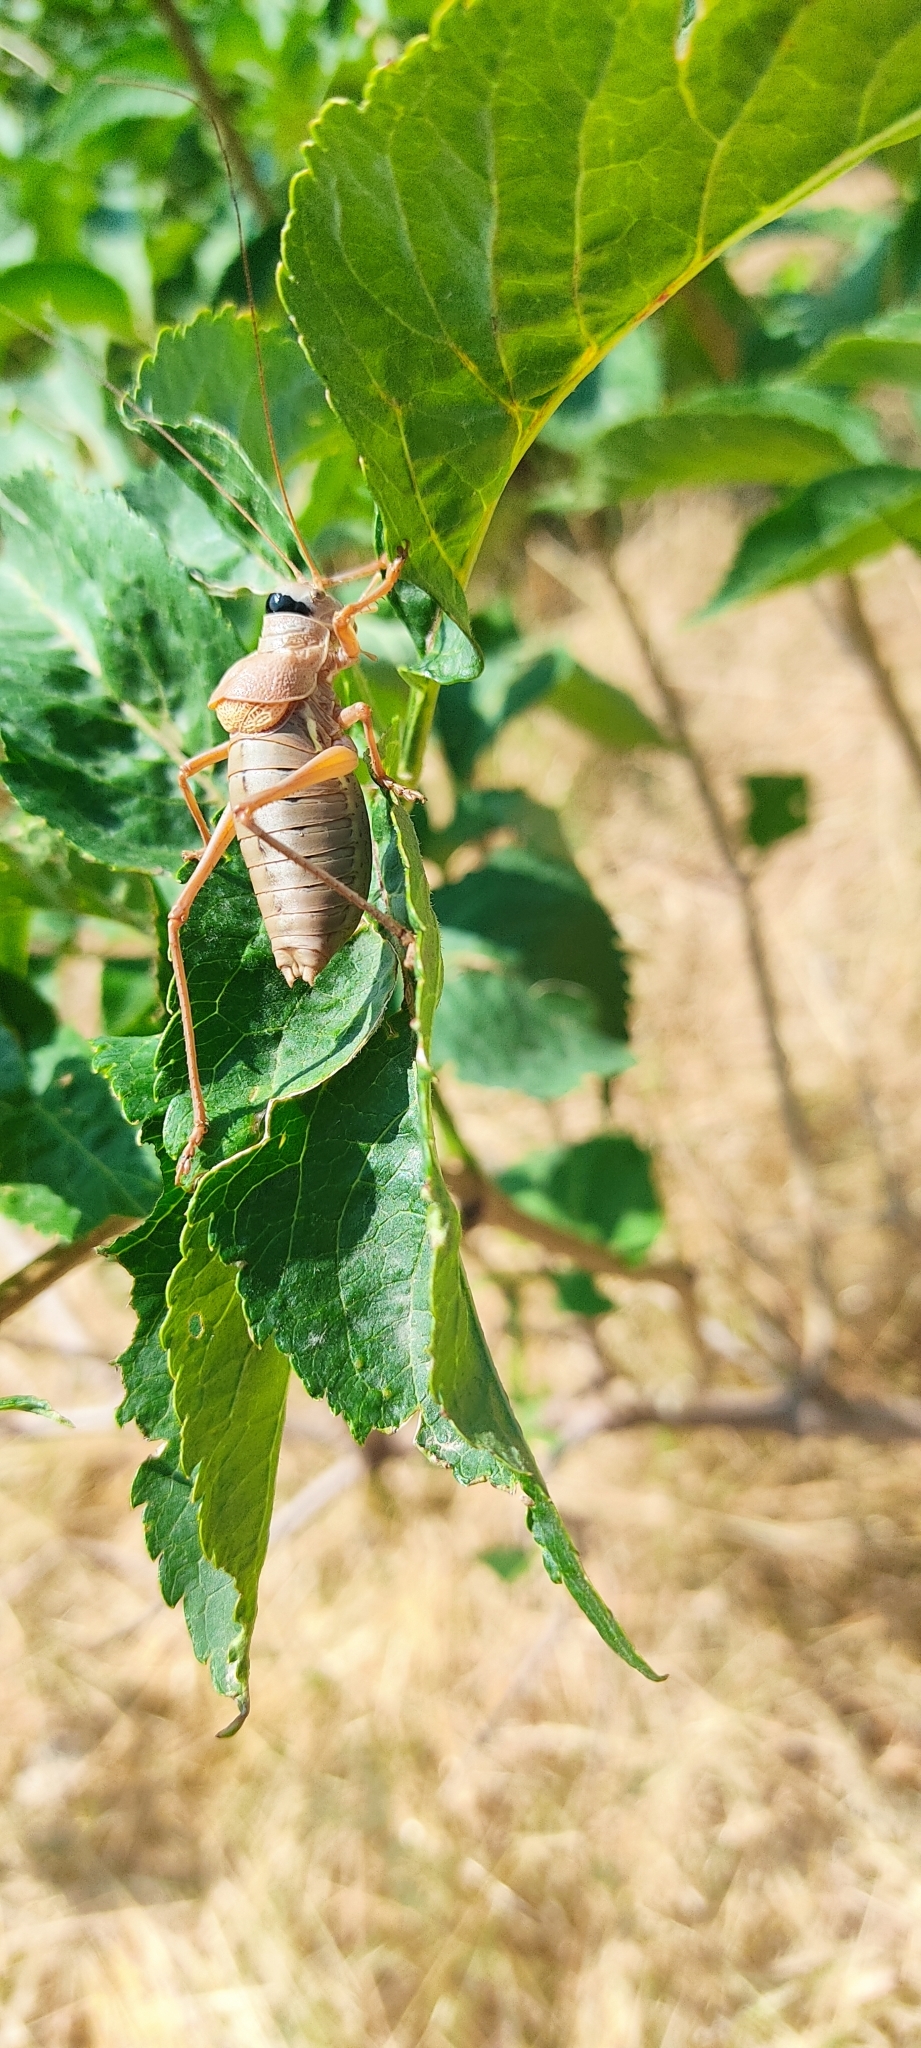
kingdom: Animalia
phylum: Arthropoda
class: Insecta
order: Orthoptera
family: Tettigoniidae
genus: Ephippiger
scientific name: Ephippiger terrestris
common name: Alpine saddle-backed bush-cricket
